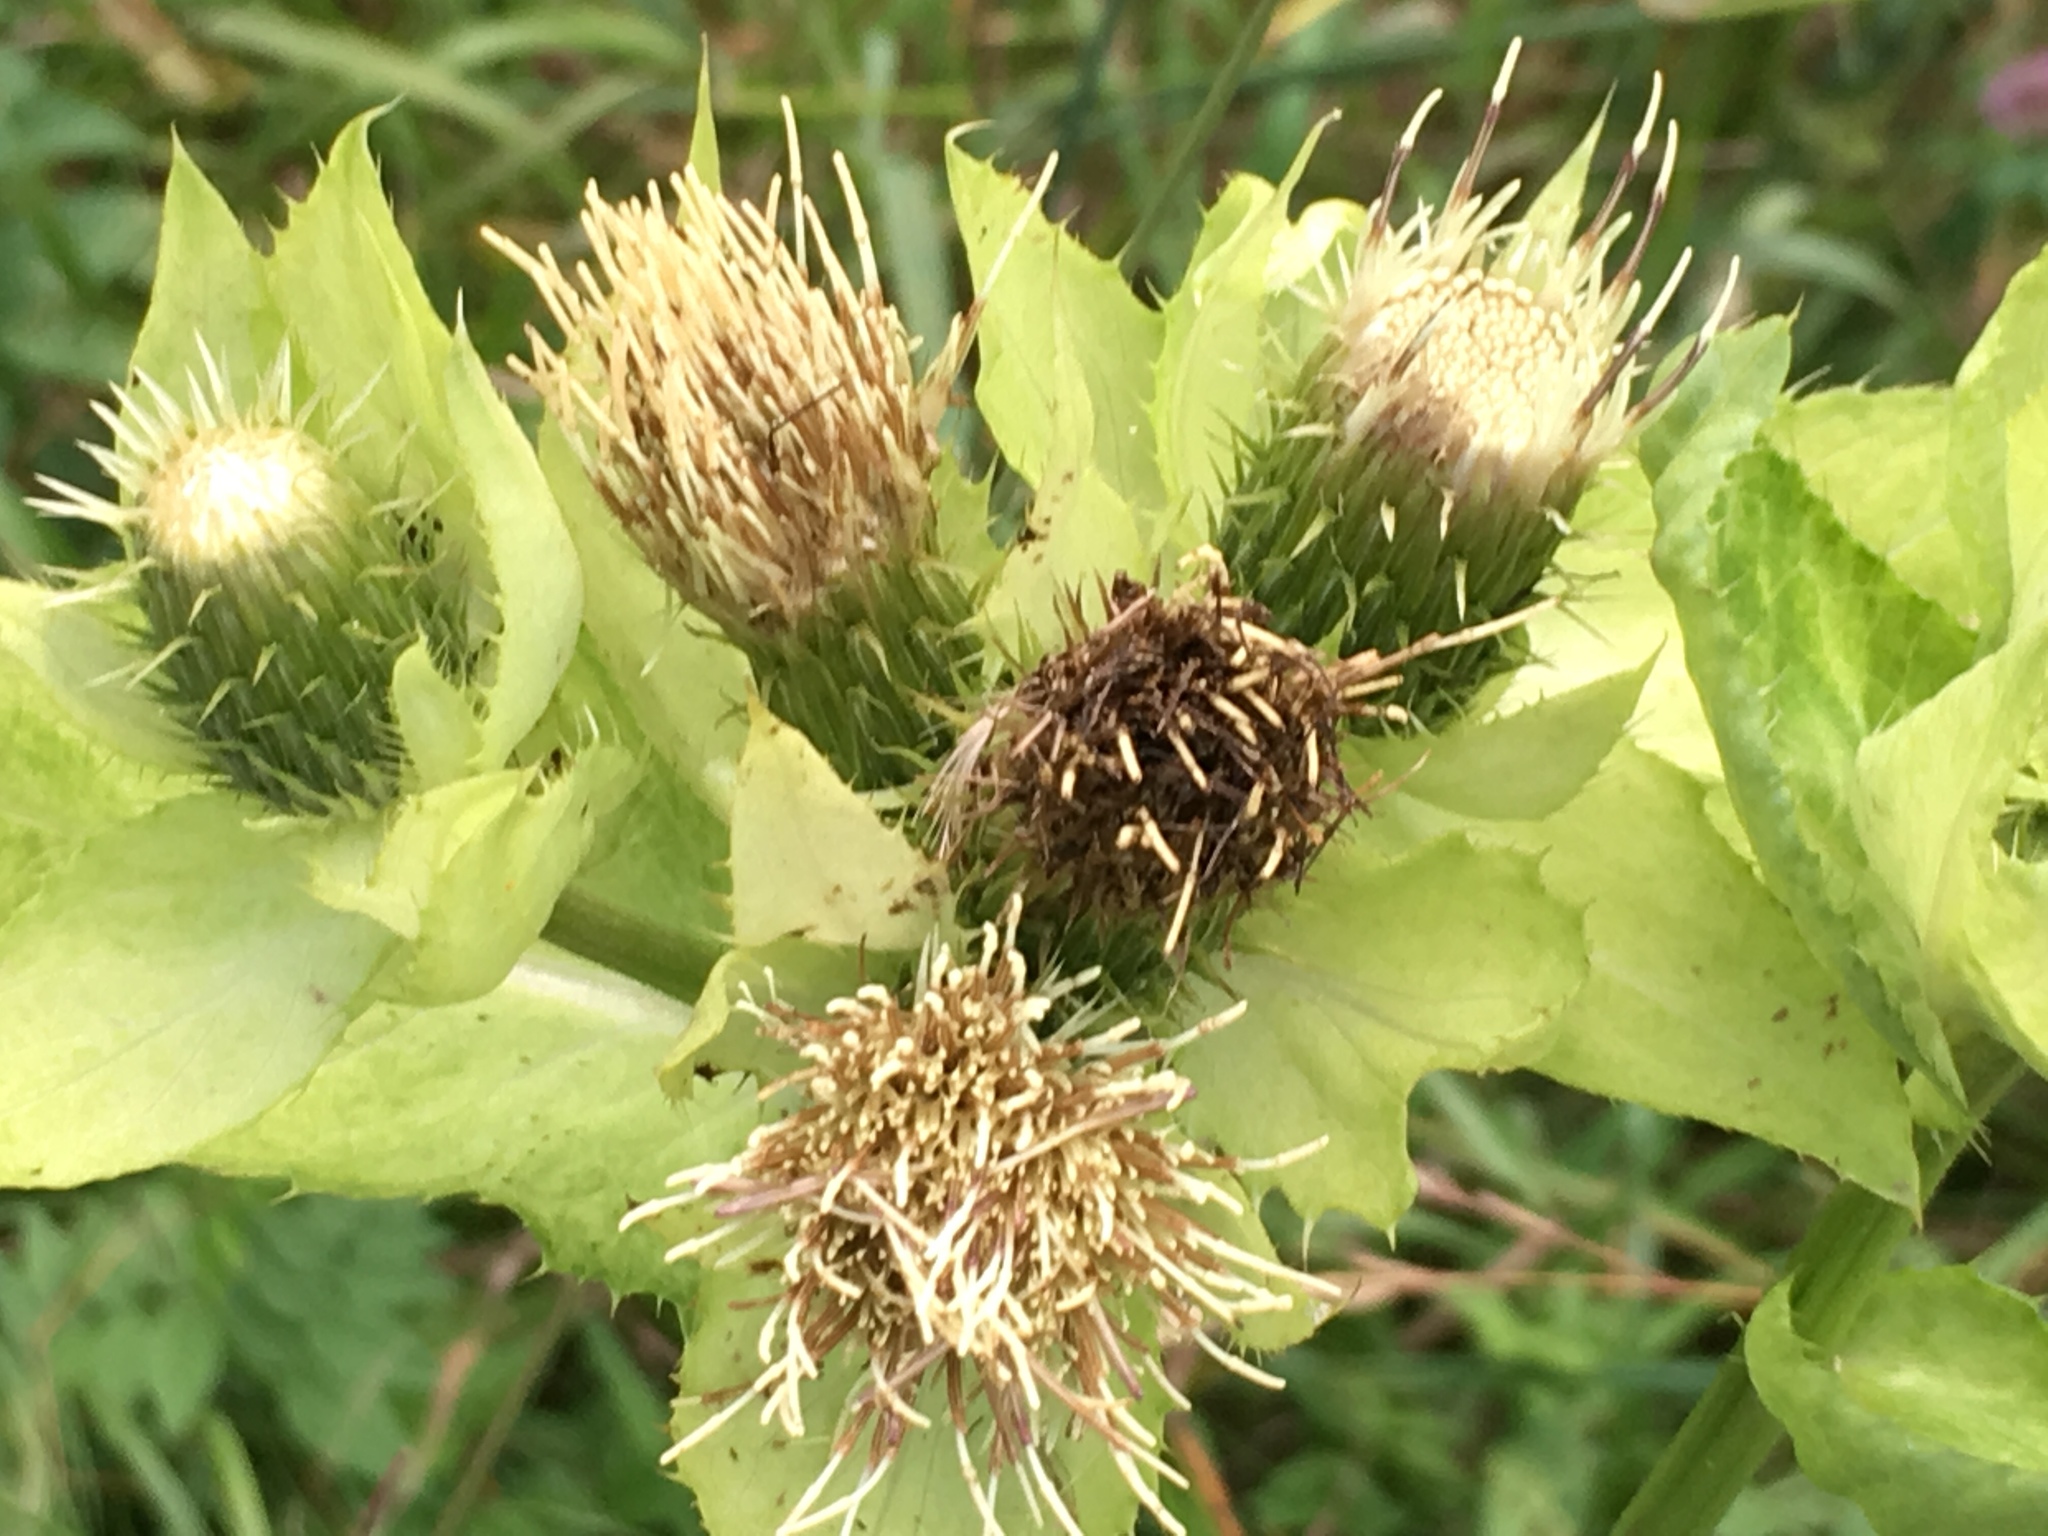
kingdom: Plantae
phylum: Tracheophyta
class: Magnoliopsida
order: Asterales
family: Asteraceae
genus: Cirsium
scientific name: Cirsium oleraceum
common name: Cabbage thistle
